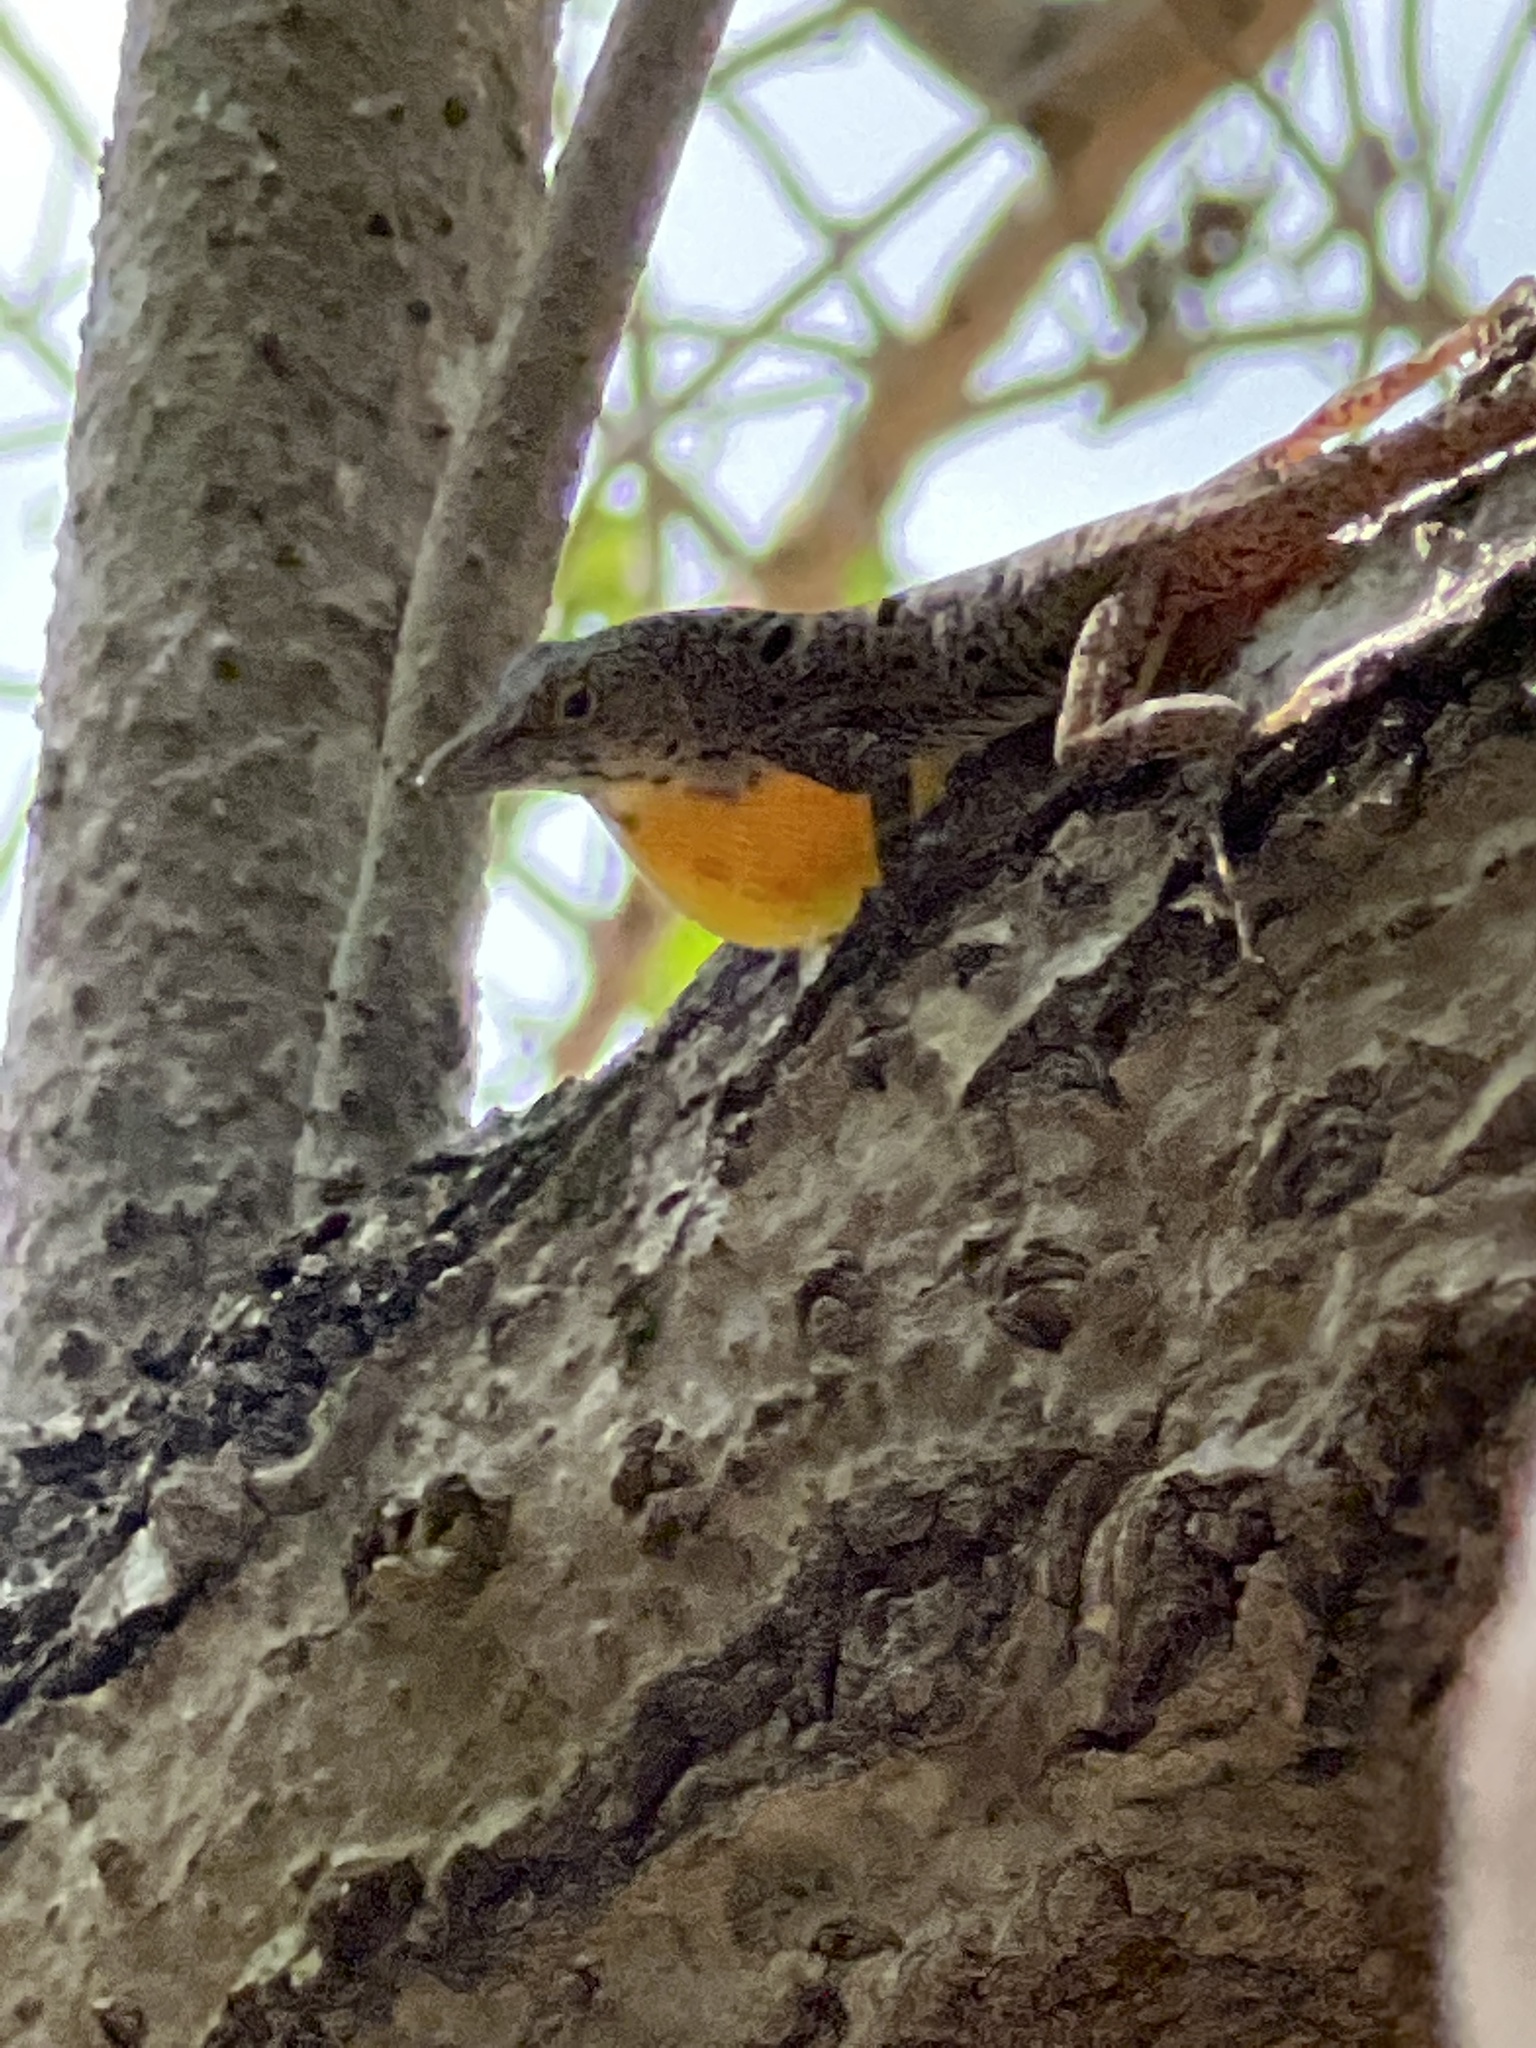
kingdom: Animalia
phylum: Chordata
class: Squamata
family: Dactyloidae
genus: Anolis
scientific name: Anolis stratulus
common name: Banded anole
